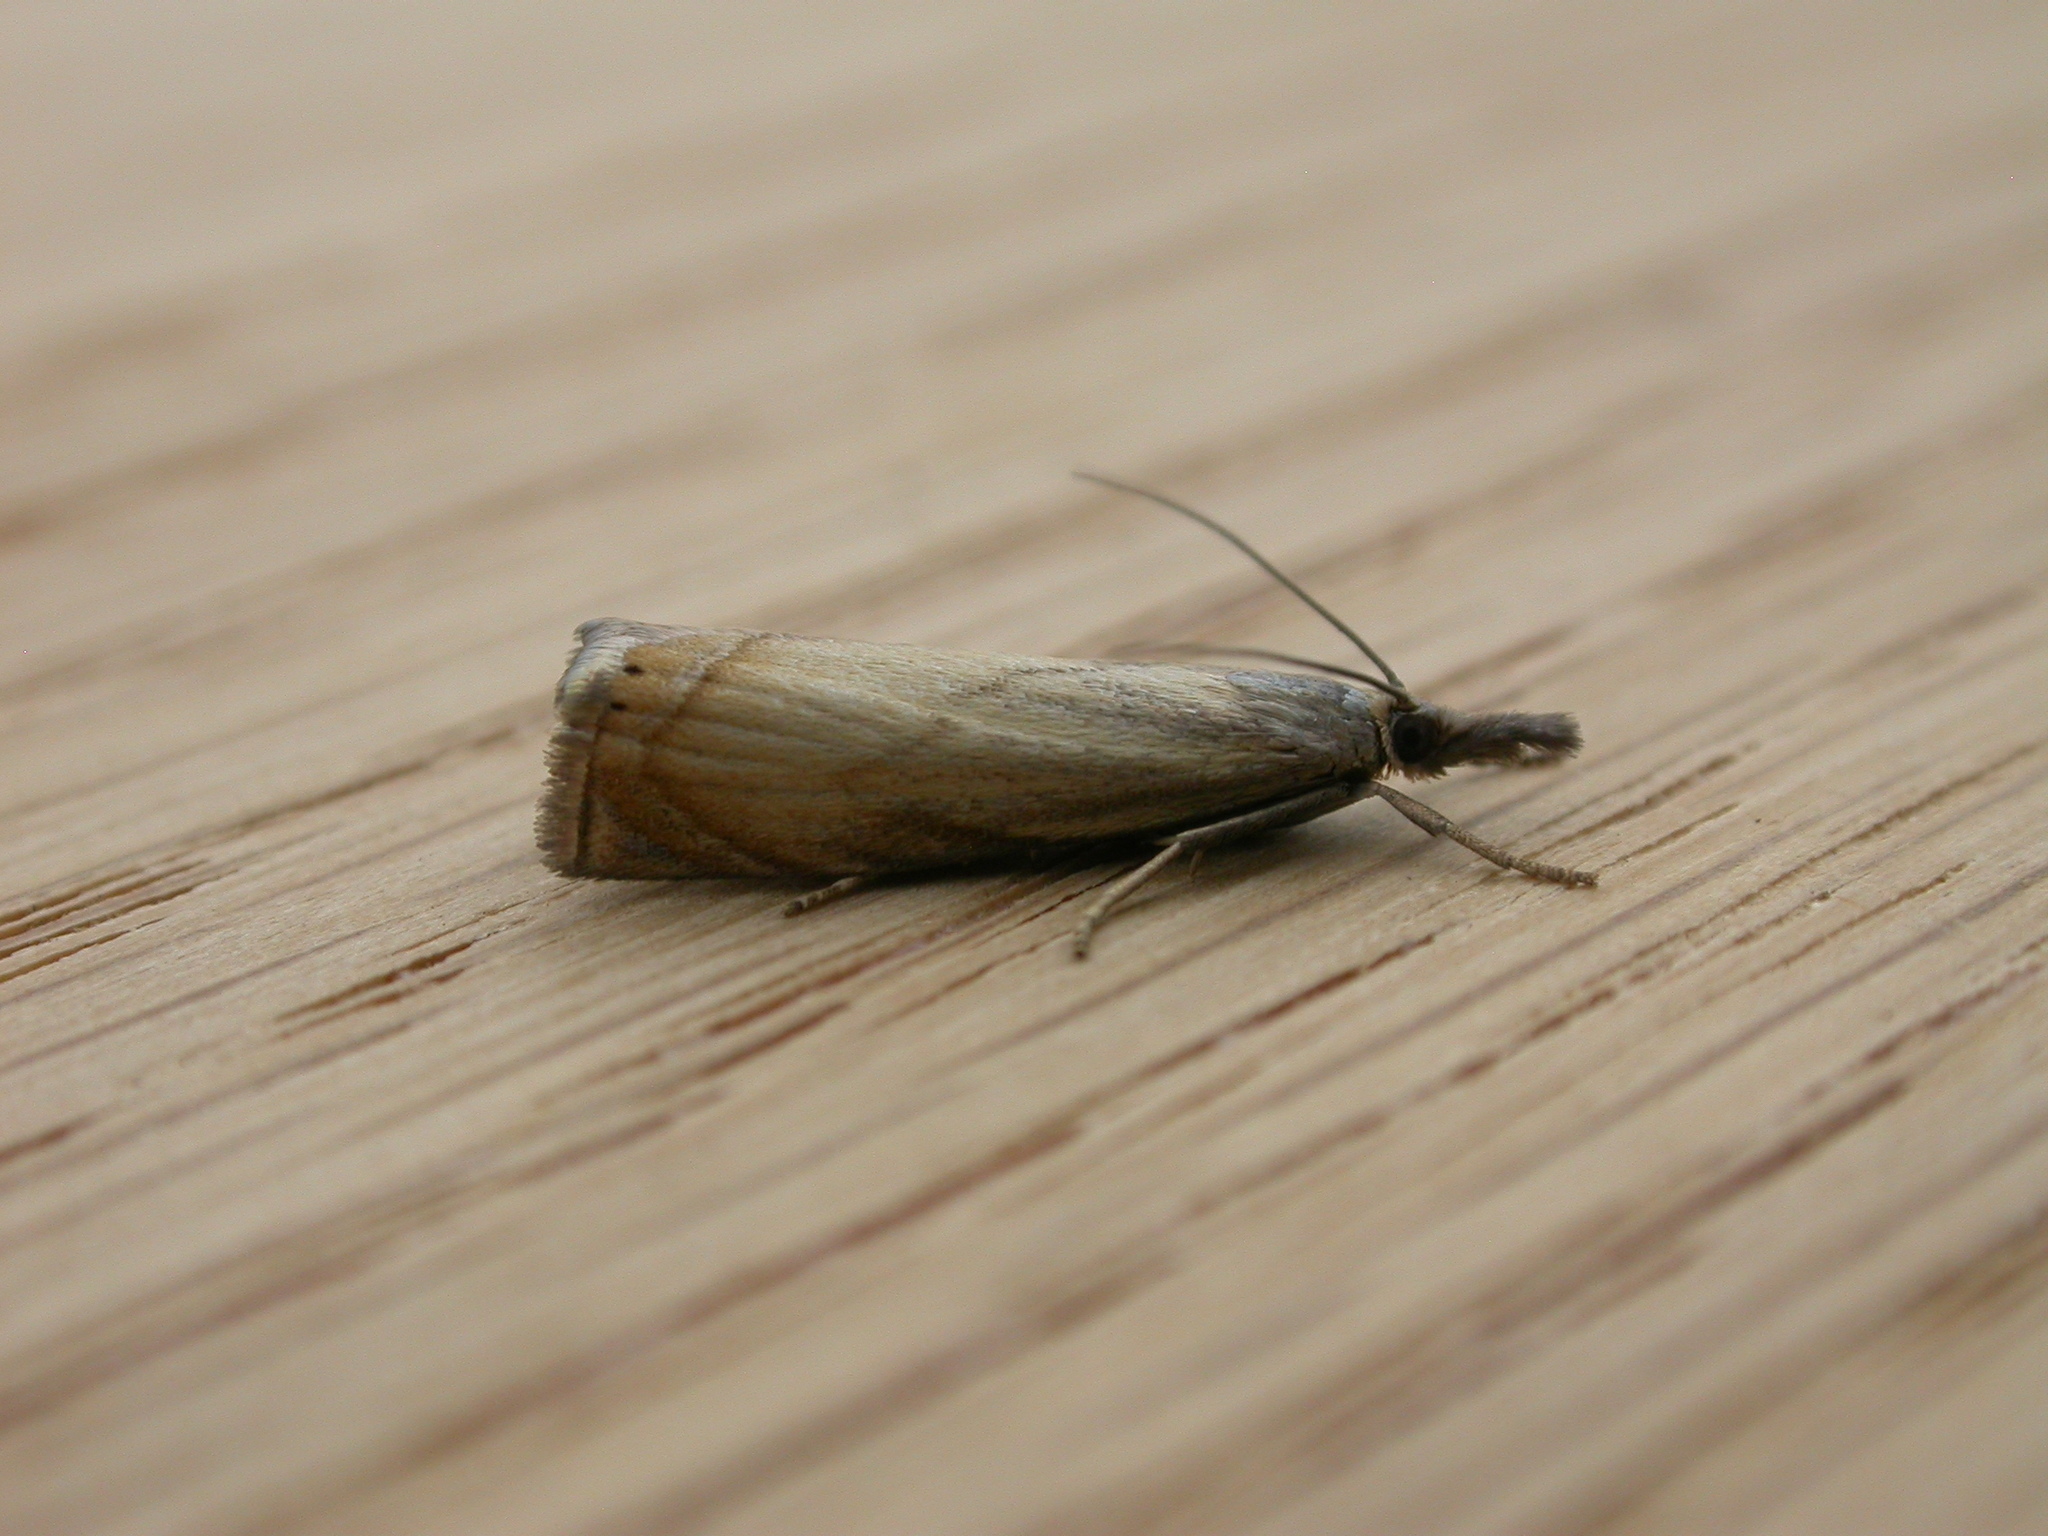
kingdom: Animalia
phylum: Arthropoda
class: Insecta
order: Lepidoptera
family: Crambidae
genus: Chrysoteuchia
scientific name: Chrysoteuchia culmella
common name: Garden grass-veneer
